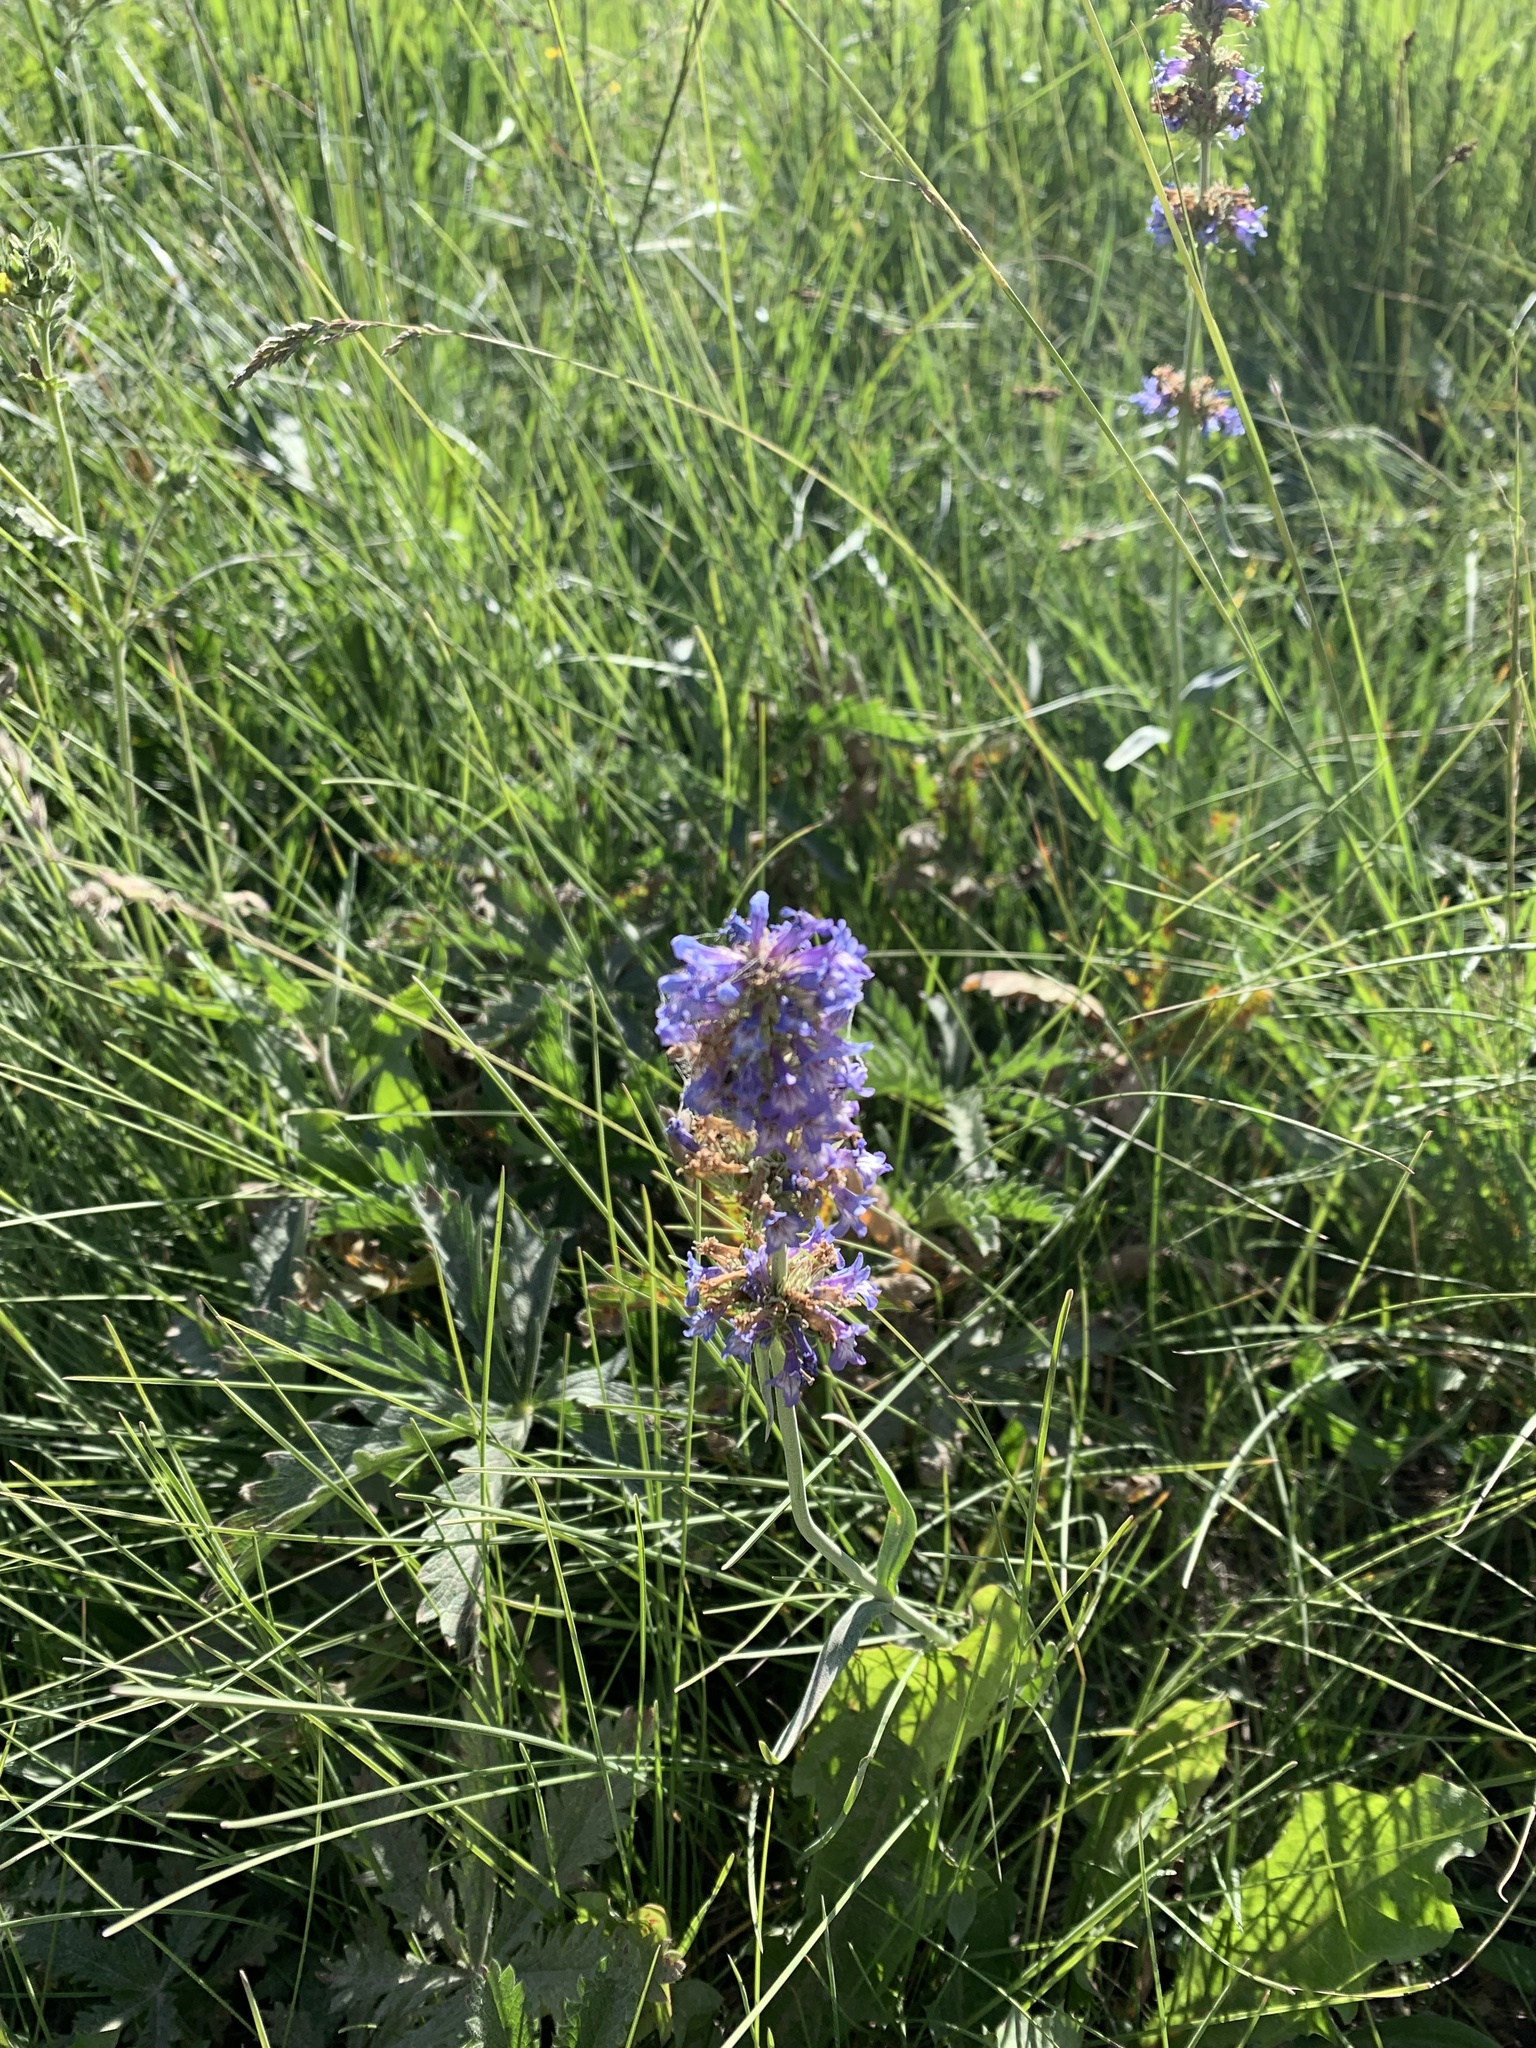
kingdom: Plantae
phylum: Tracheophyta
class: Magnoliopsida
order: Lamiales
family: Plantaginaceae
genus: Penstemon
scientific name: Penstemon procerus
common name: Small-flower penstemon
